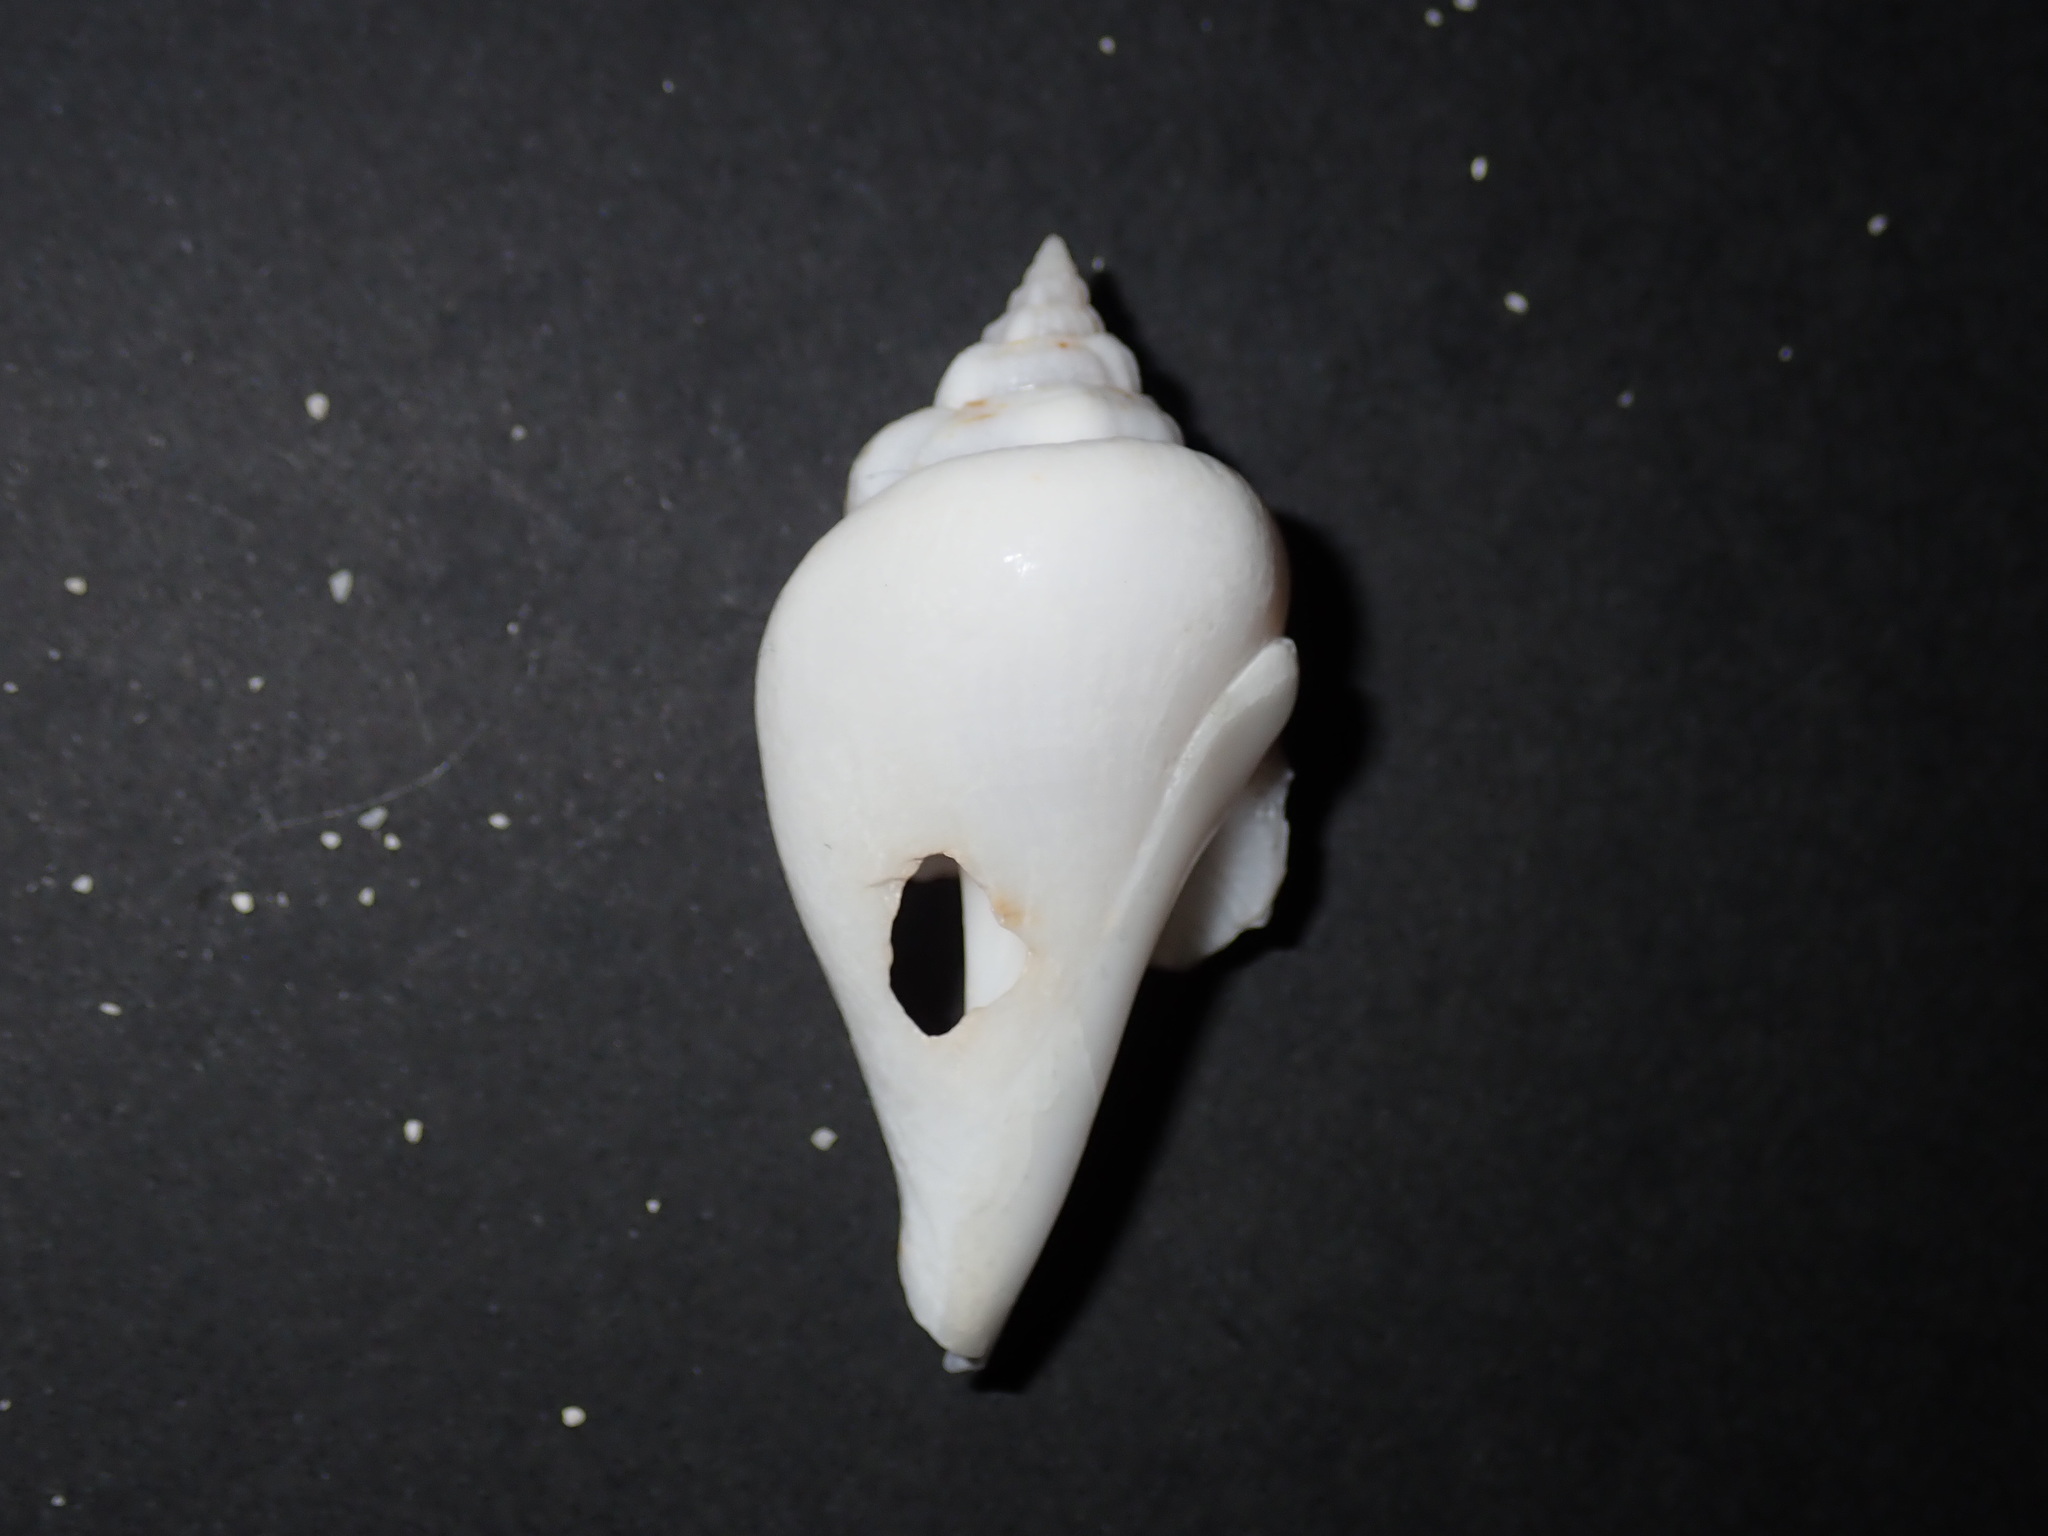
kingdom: Animalia
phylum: Mollusca
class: Gastropoda
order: Littorinimorpha
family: Strombidae
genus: Gibberulus
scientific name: Gibberulus gibberulus
